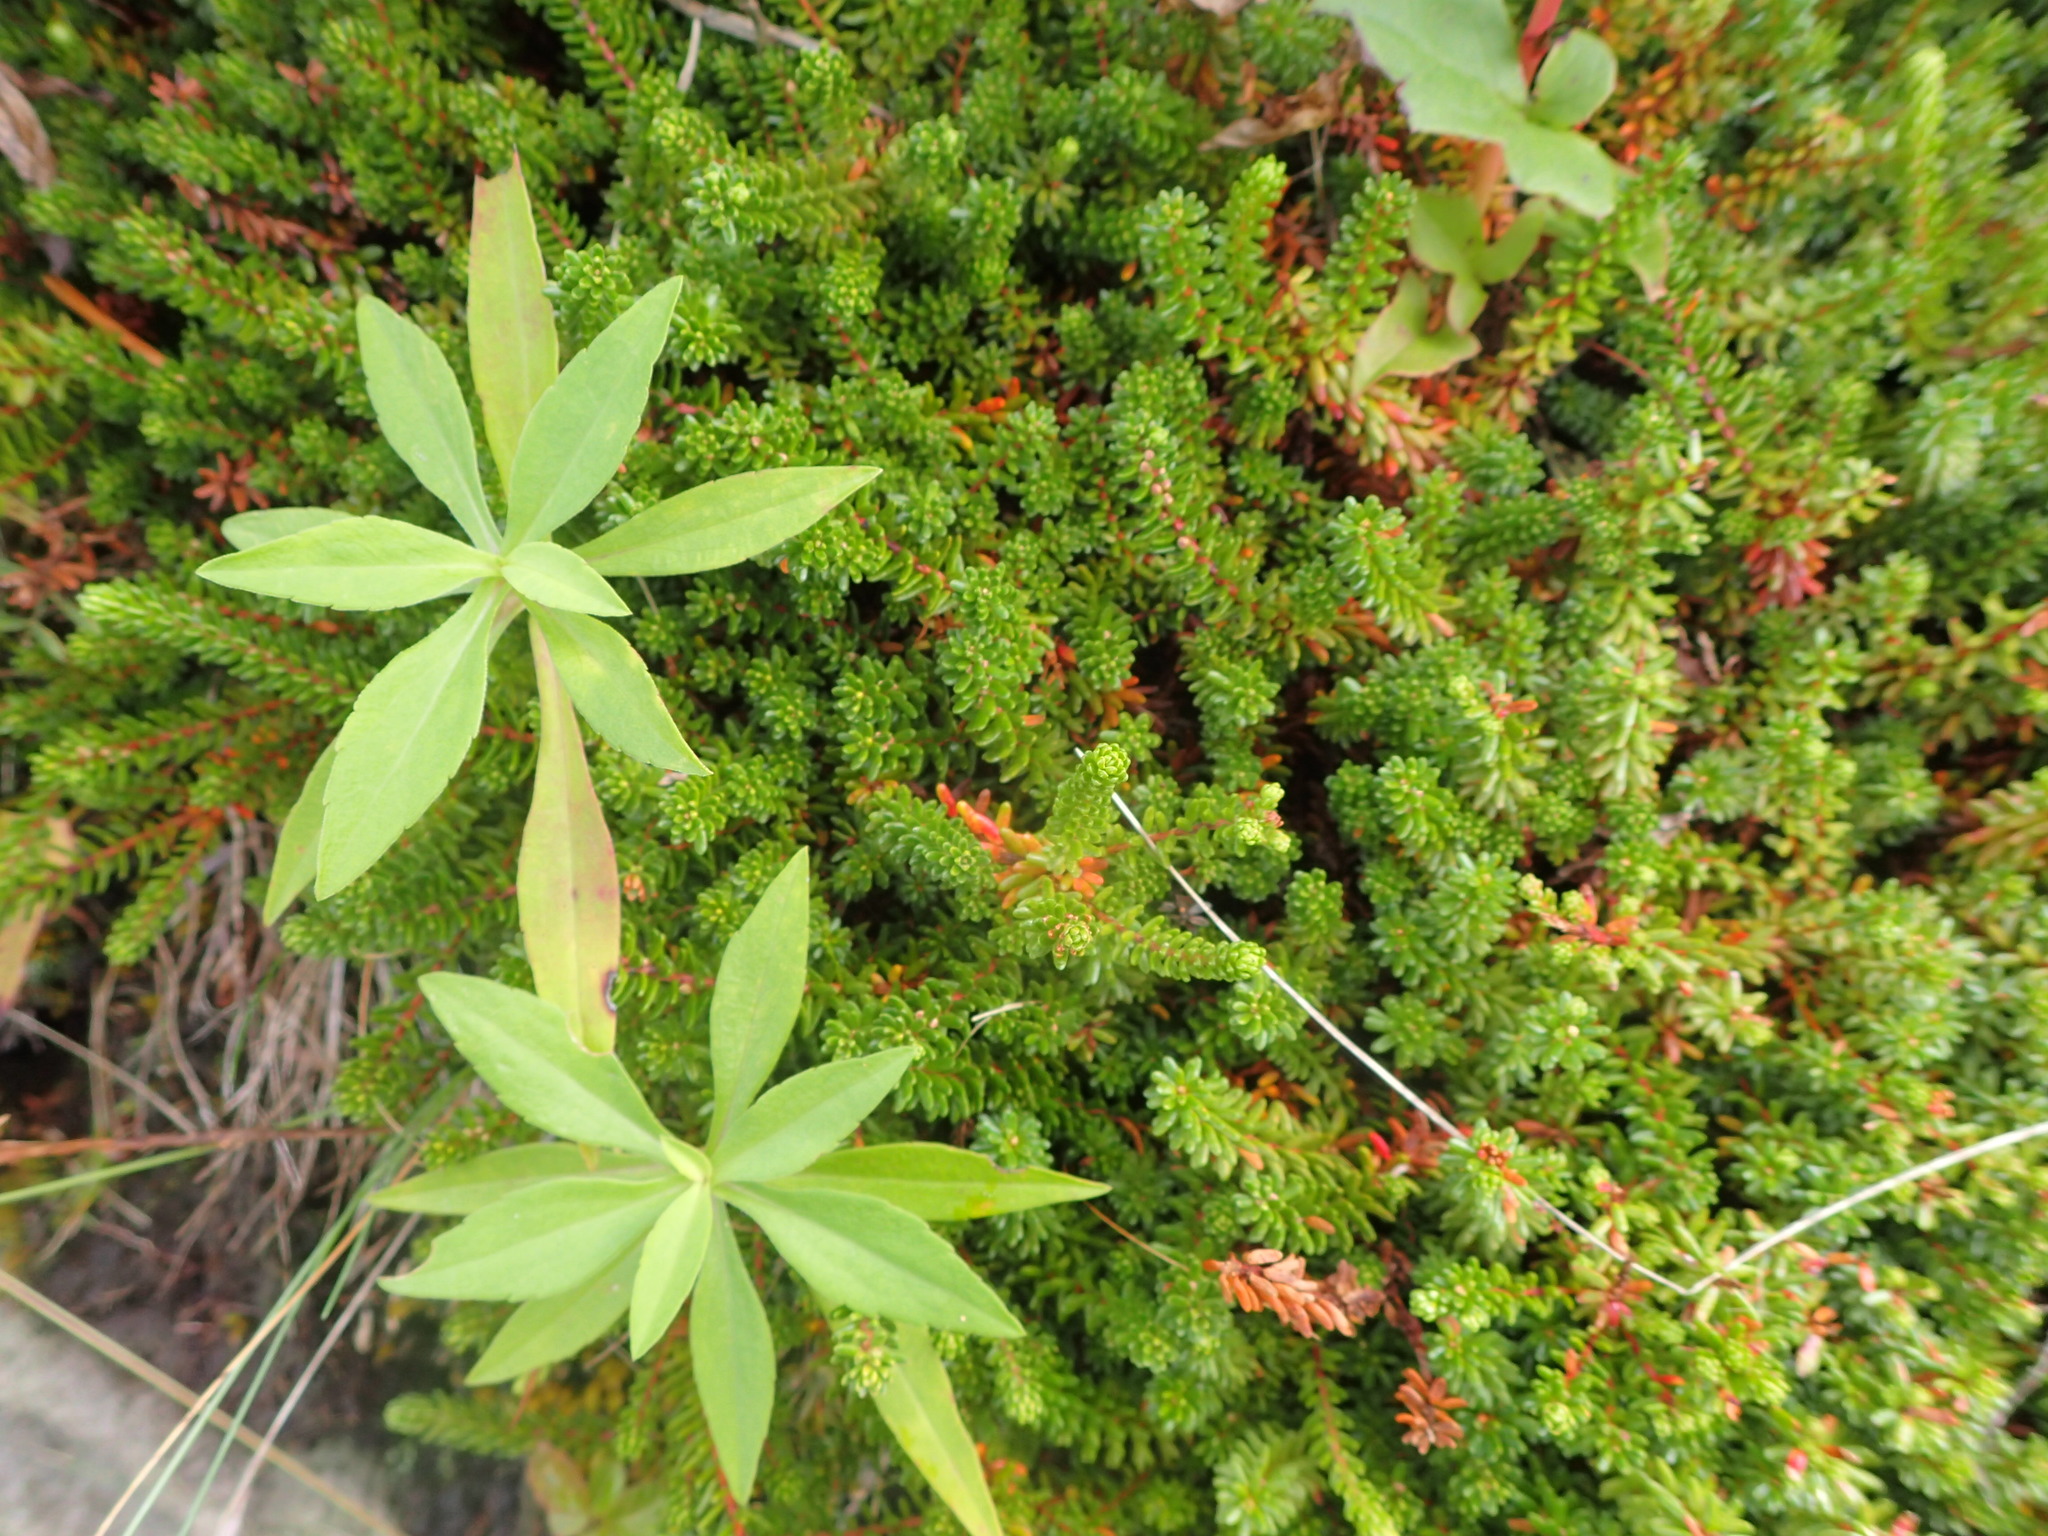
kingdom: Plantae
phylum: Tracheophyta
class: Magnoliopsida
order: Ericales
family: Ericaceae
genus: Empetrum
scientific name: Empetrum nigrum
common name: Black crowberry
